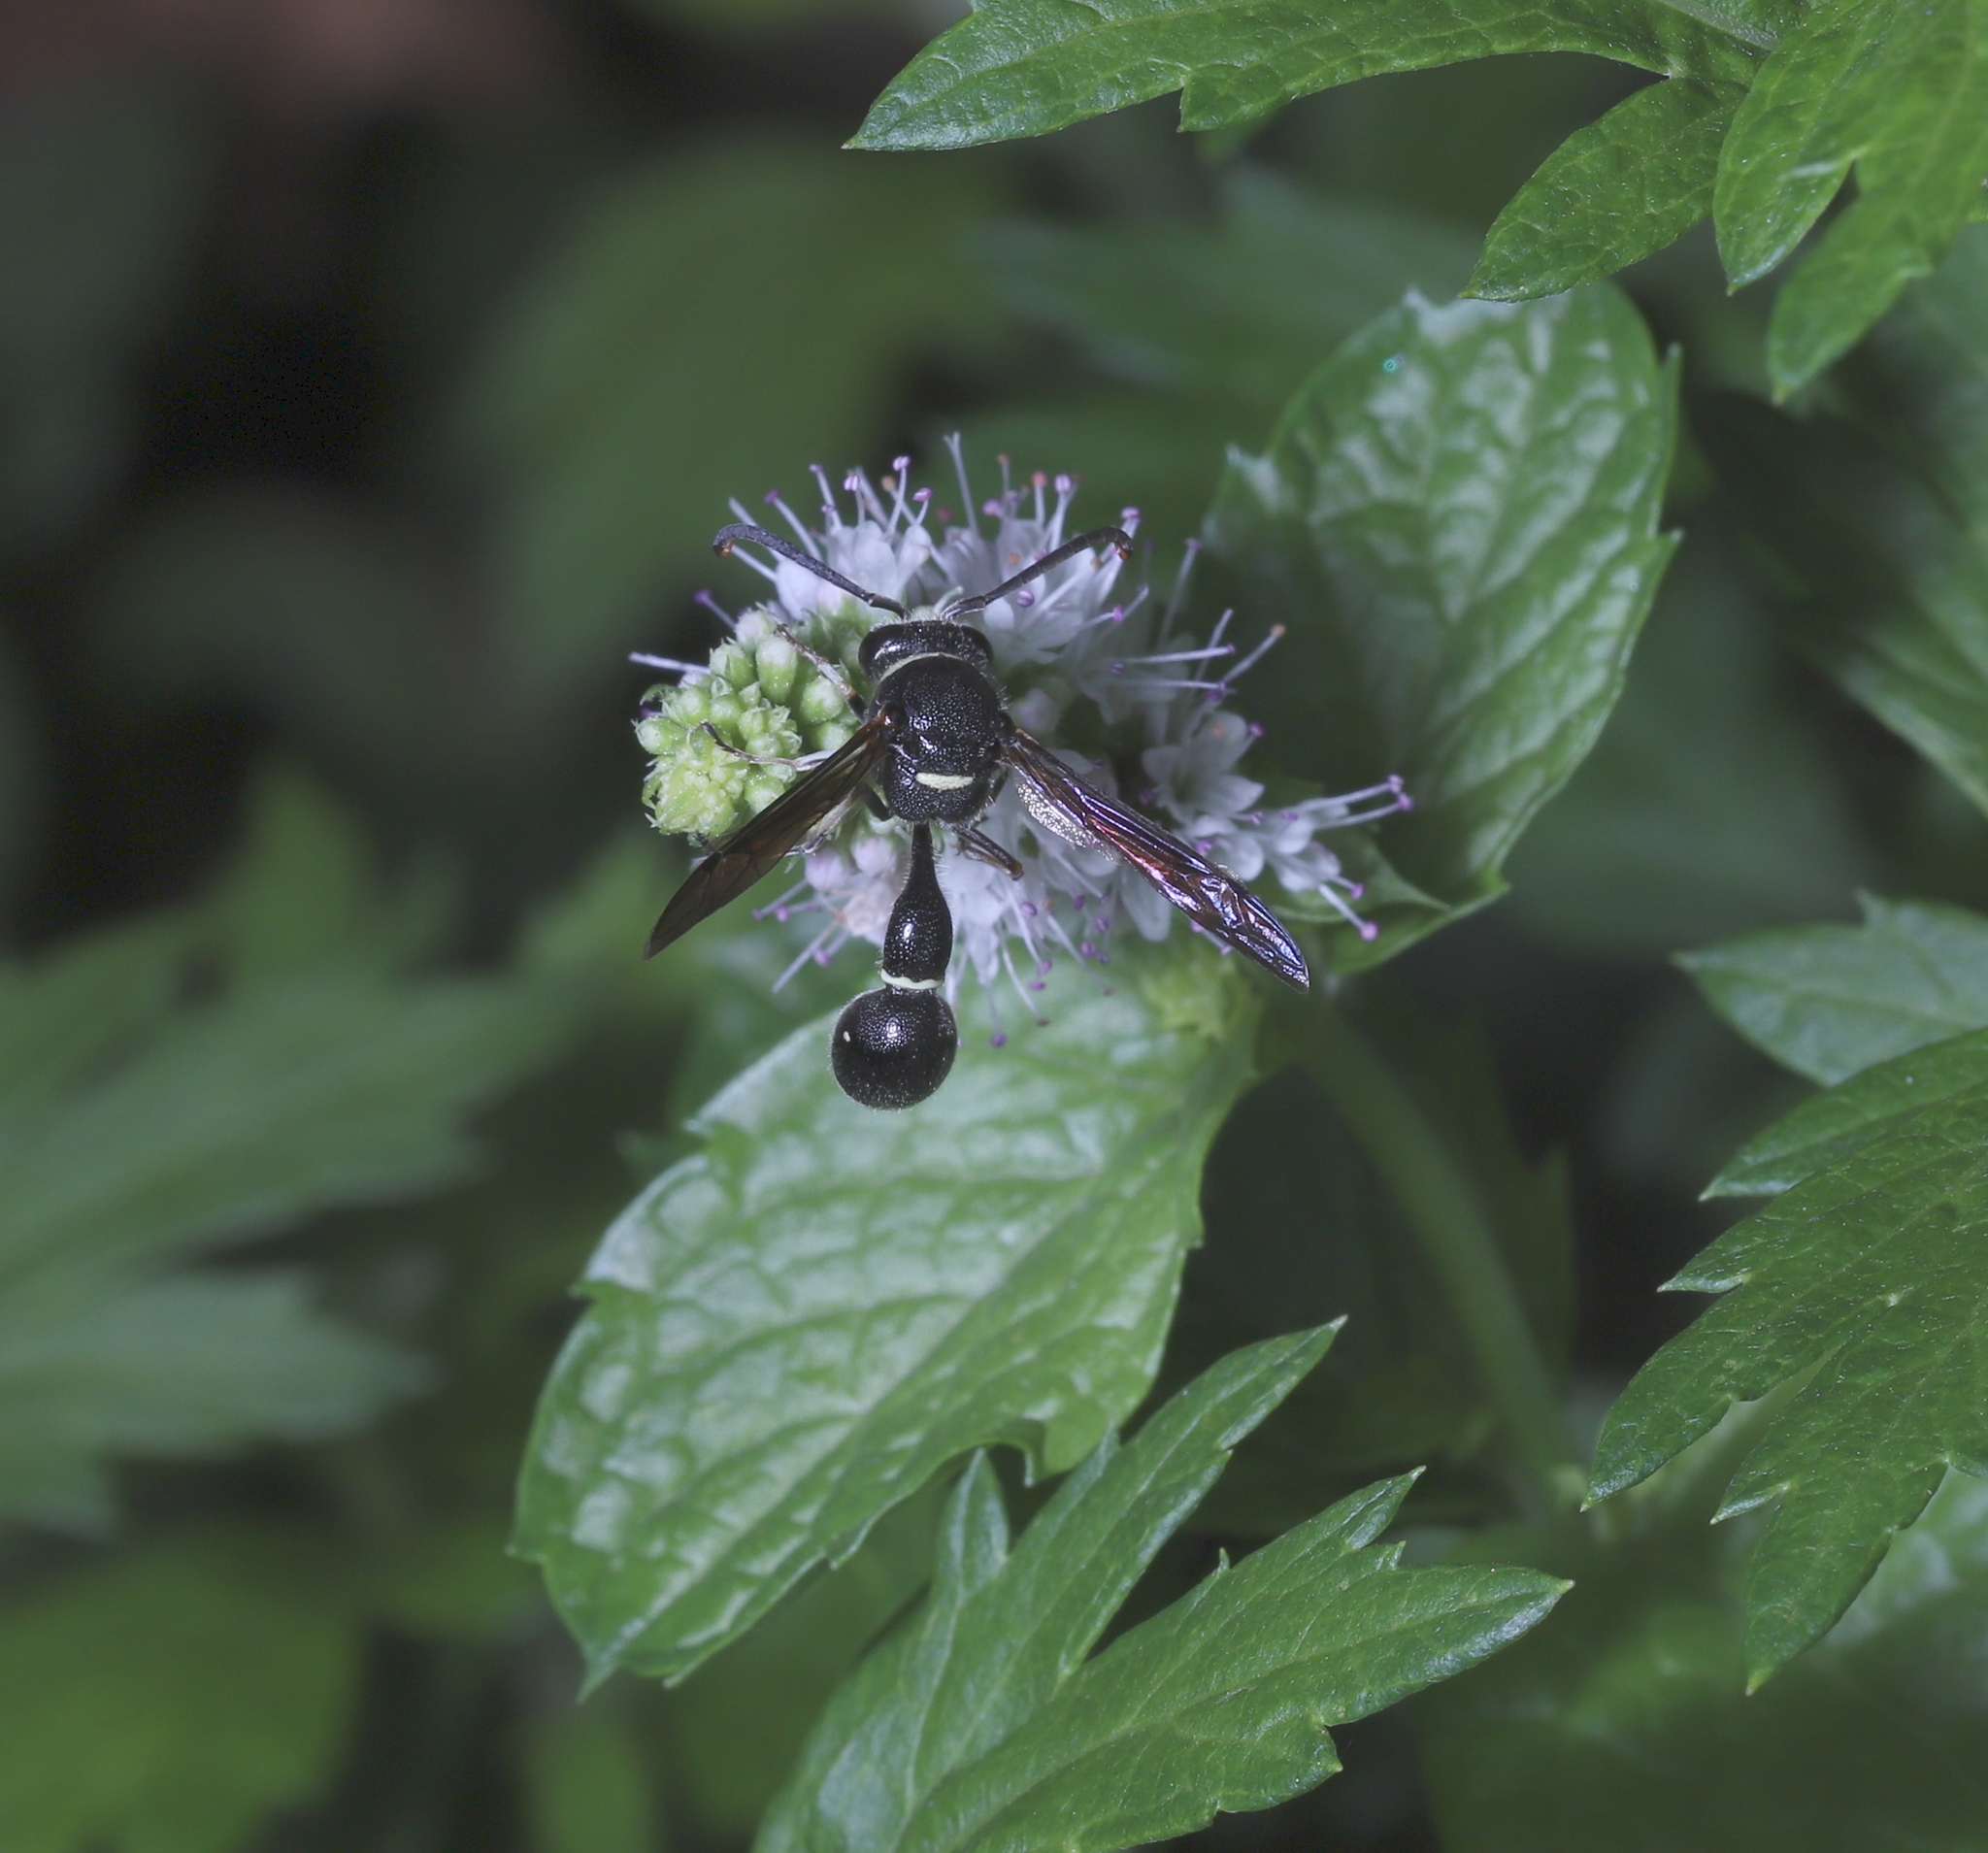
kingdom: Animalia
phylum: Arthropoda
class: Insecta
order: Hymenoptera
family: Vespidae
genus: Eumenes
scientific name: Eumenes fraternus
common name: Fraternal potter wasp
